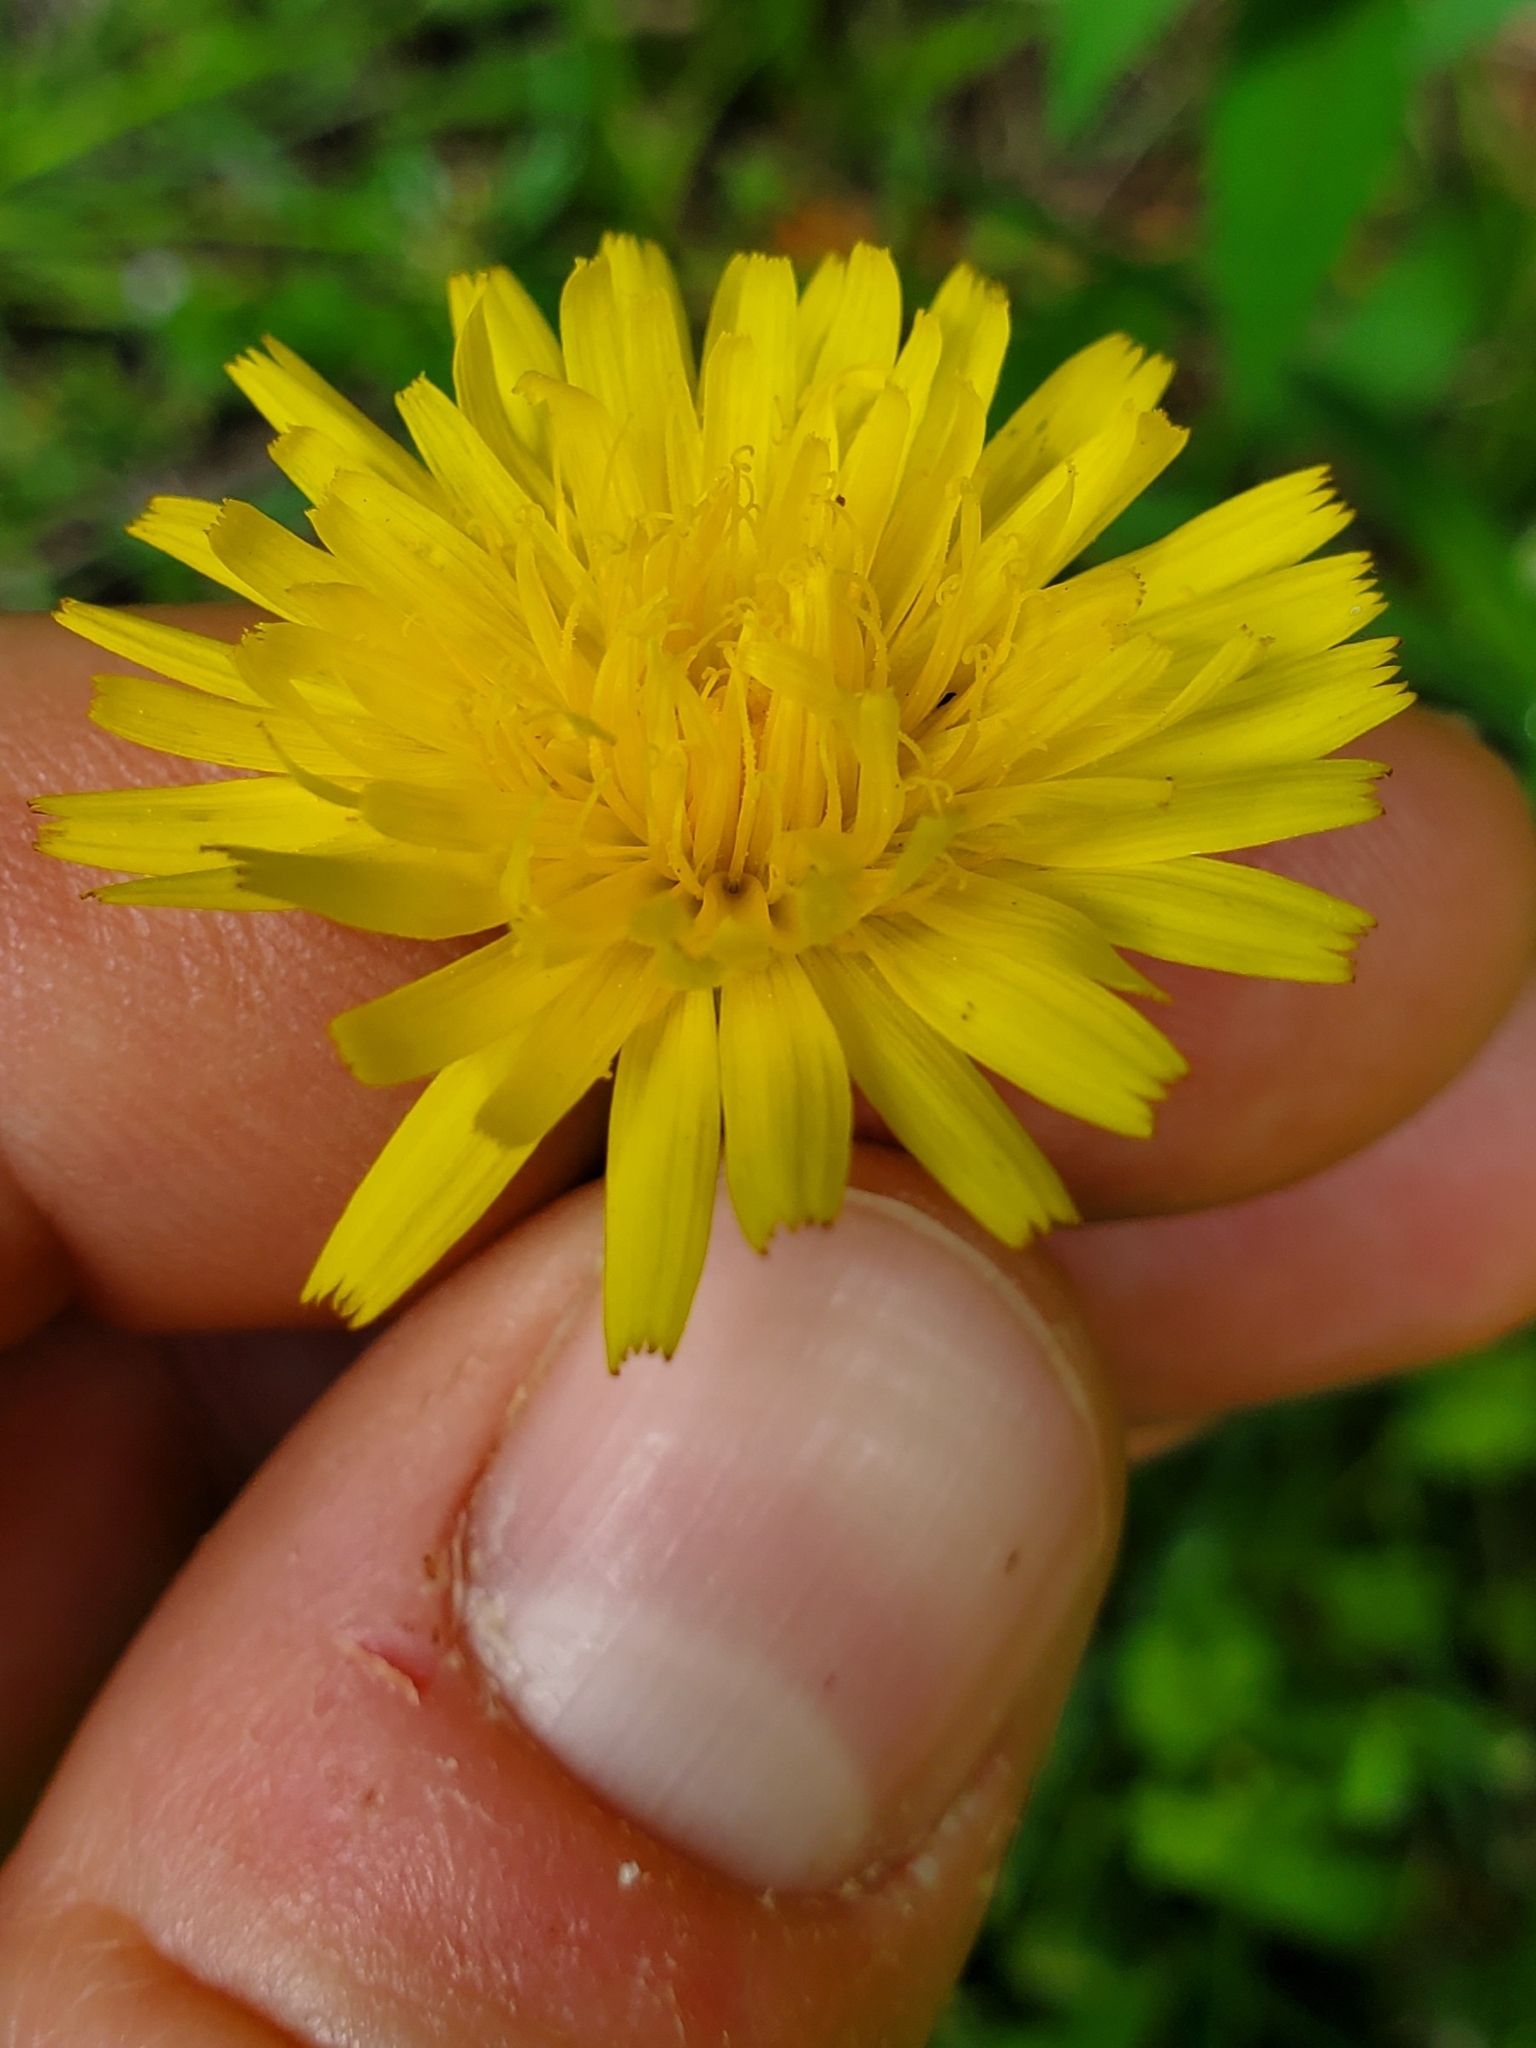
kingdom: Plantae
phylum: Tracheophyta
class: Magnoliopsida
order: Asterales
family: Asteraceae
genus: Hypochaeris
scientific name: Hypochaeris radicata
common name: Flatweed
